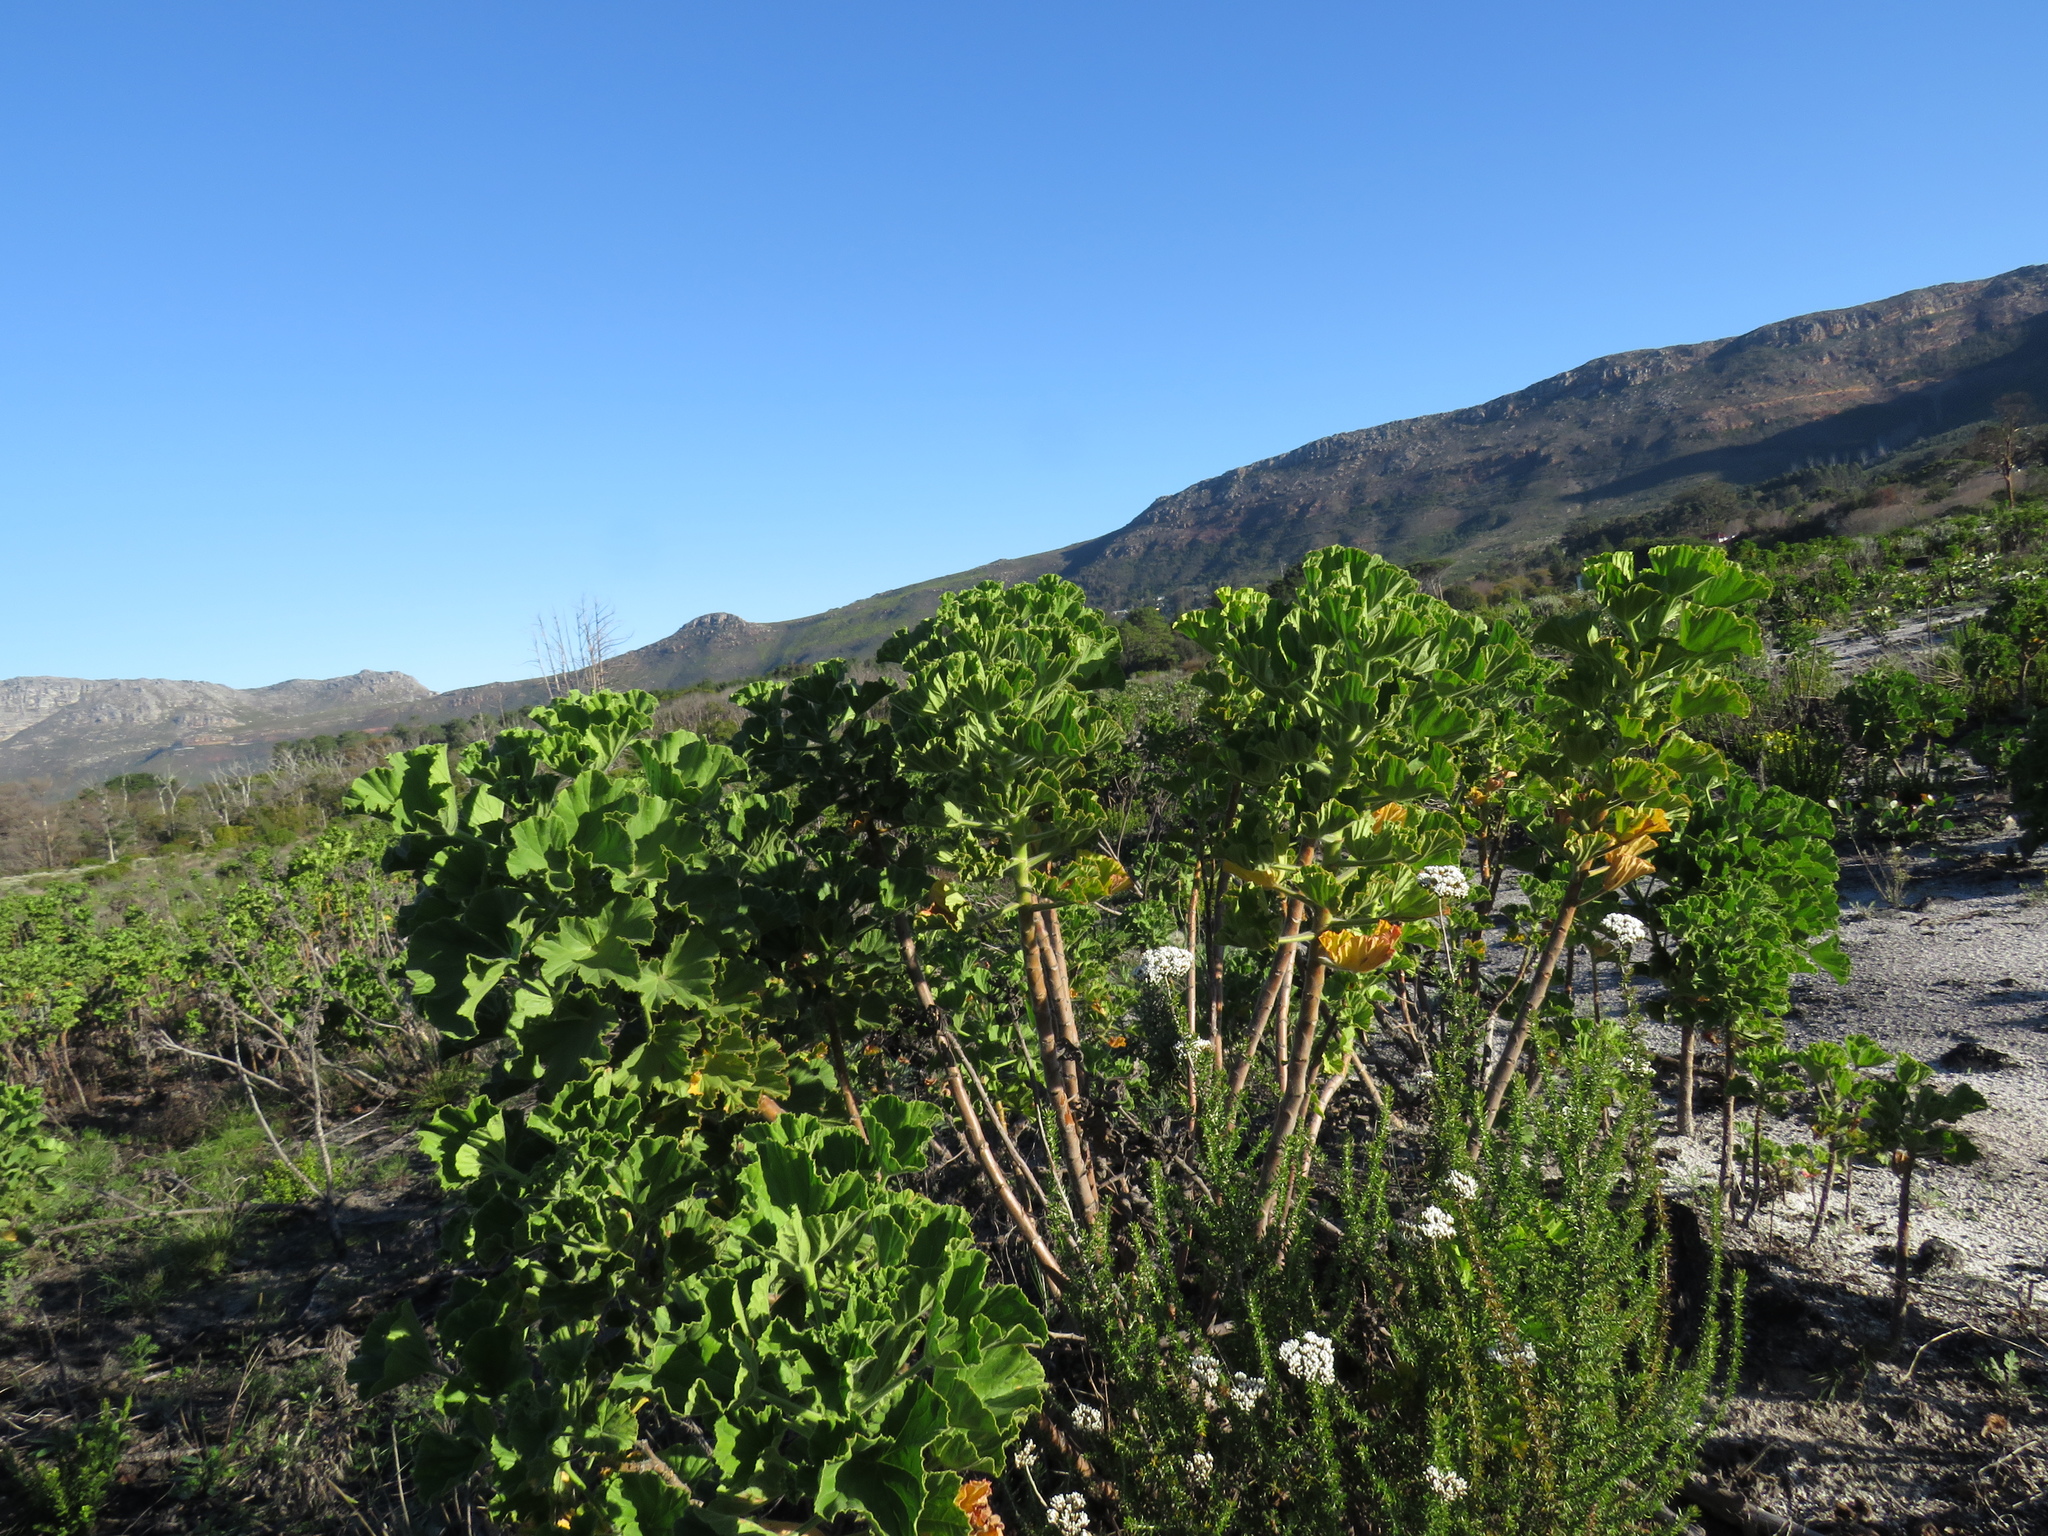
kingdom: Plantae
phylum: Tracheophyta
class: Magnoliopsida
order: Geraniales
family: Geraniaceae
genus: Pelargonium
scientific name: Pelargonium cucullatum
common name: Tree pelargonium
